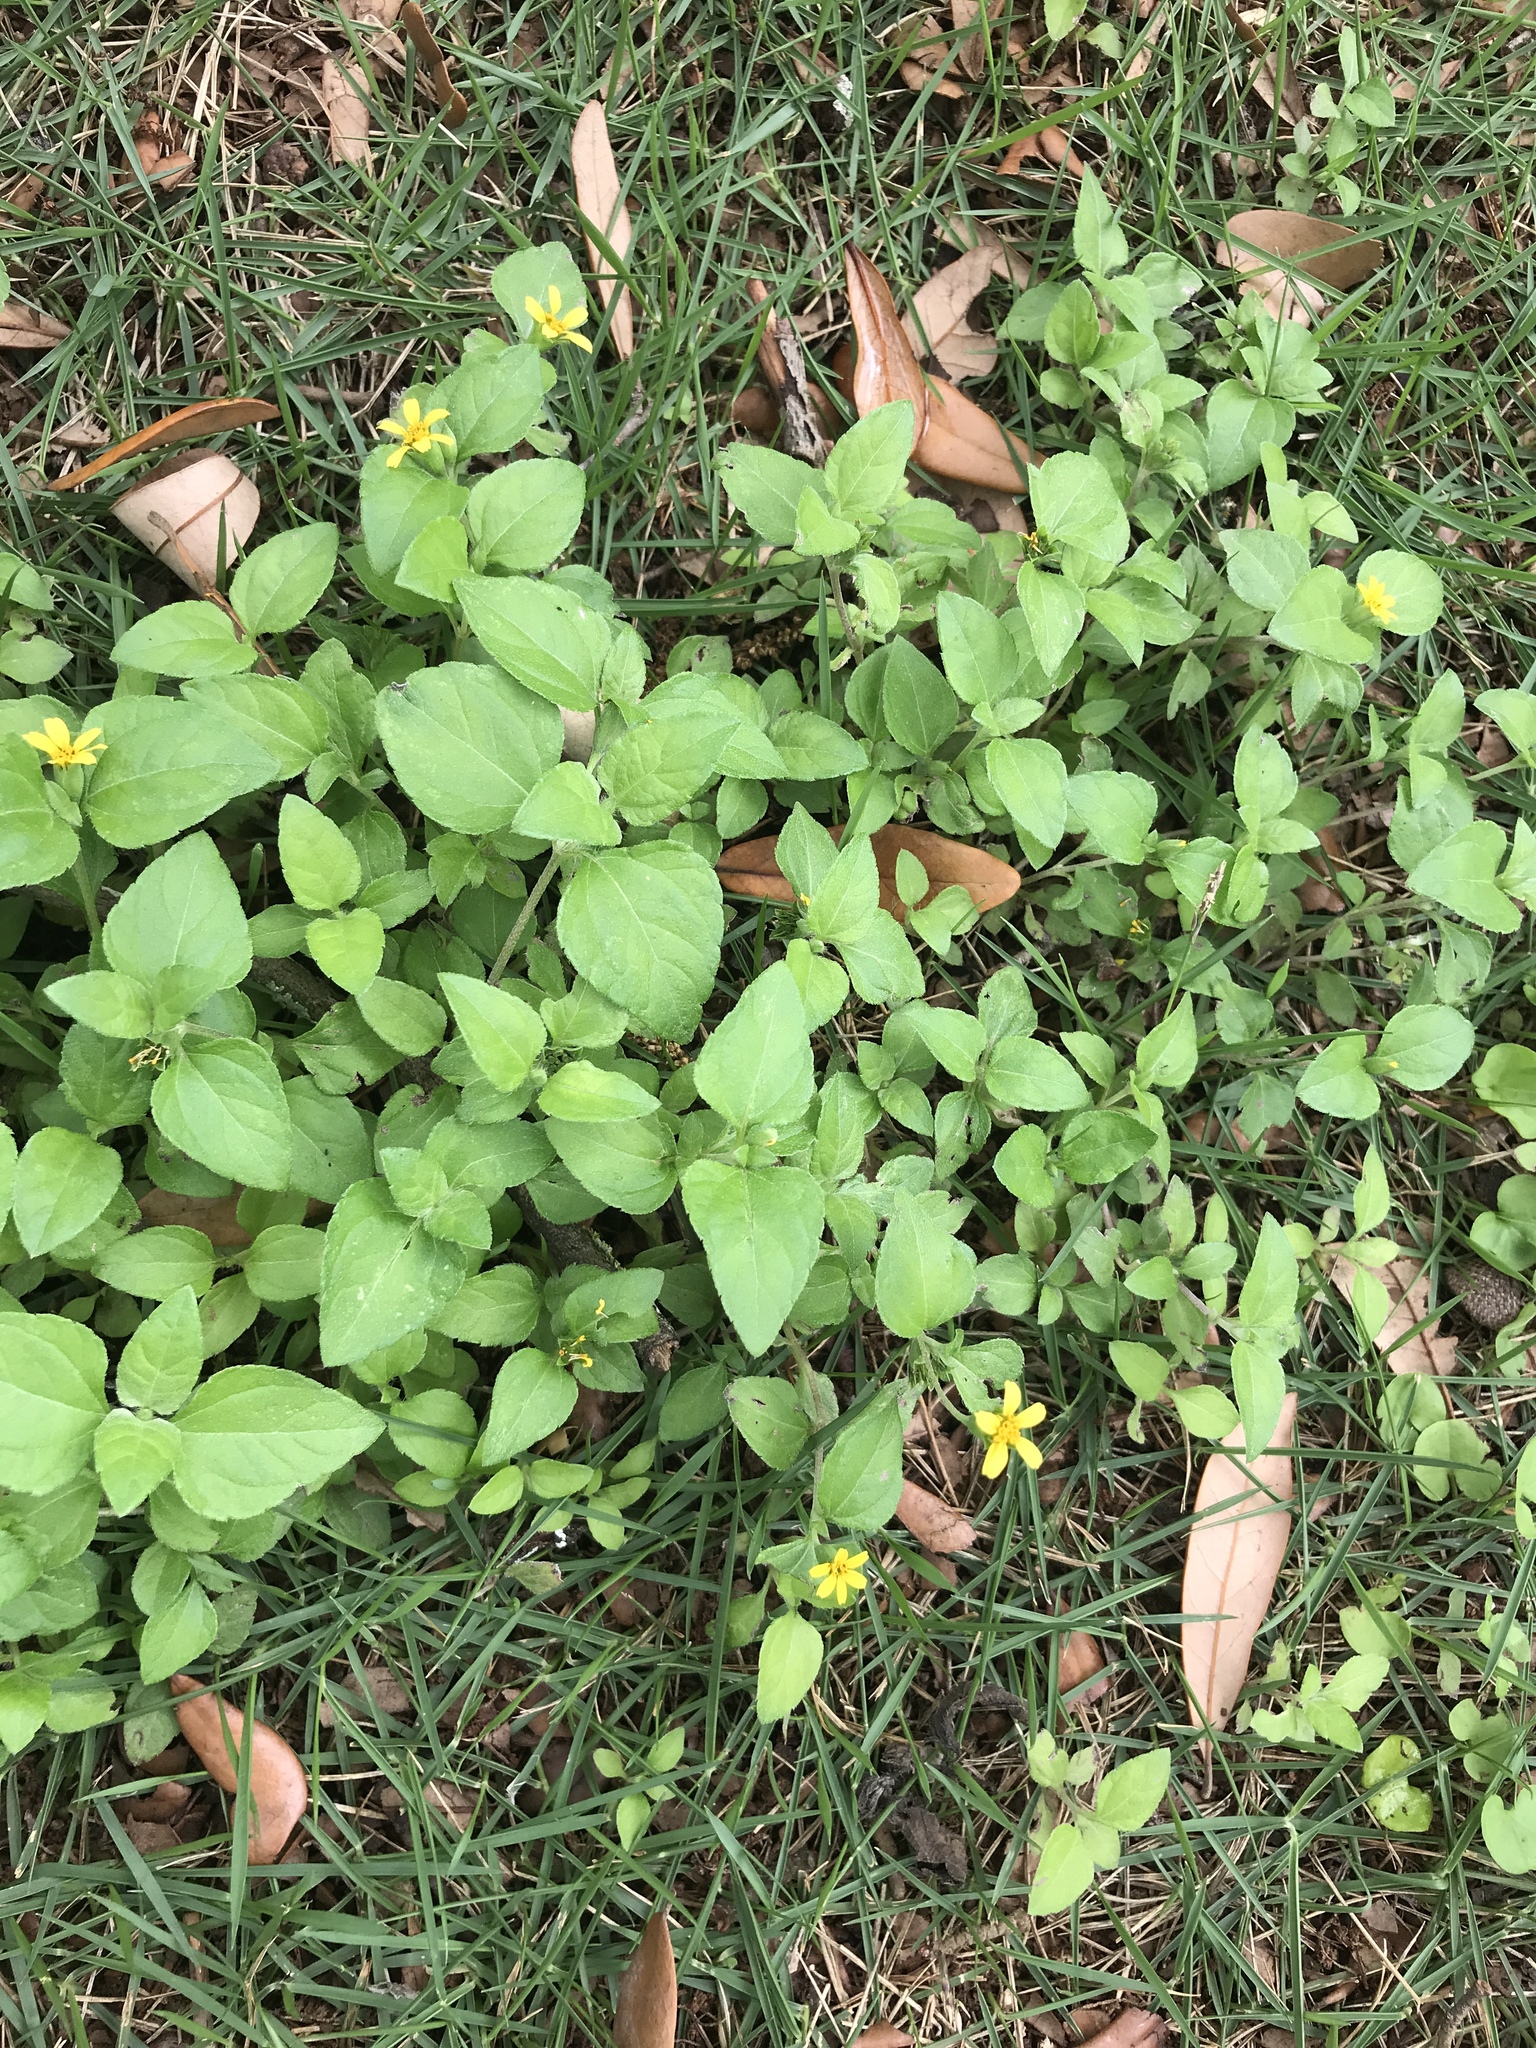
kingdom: Plantae
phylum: Tracheophyta
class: Magnoliopsida
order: Asterales
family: Asteraceae
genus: Calyptocarpus
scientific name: Calyptocarpus vialis
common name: Straggler daisy
